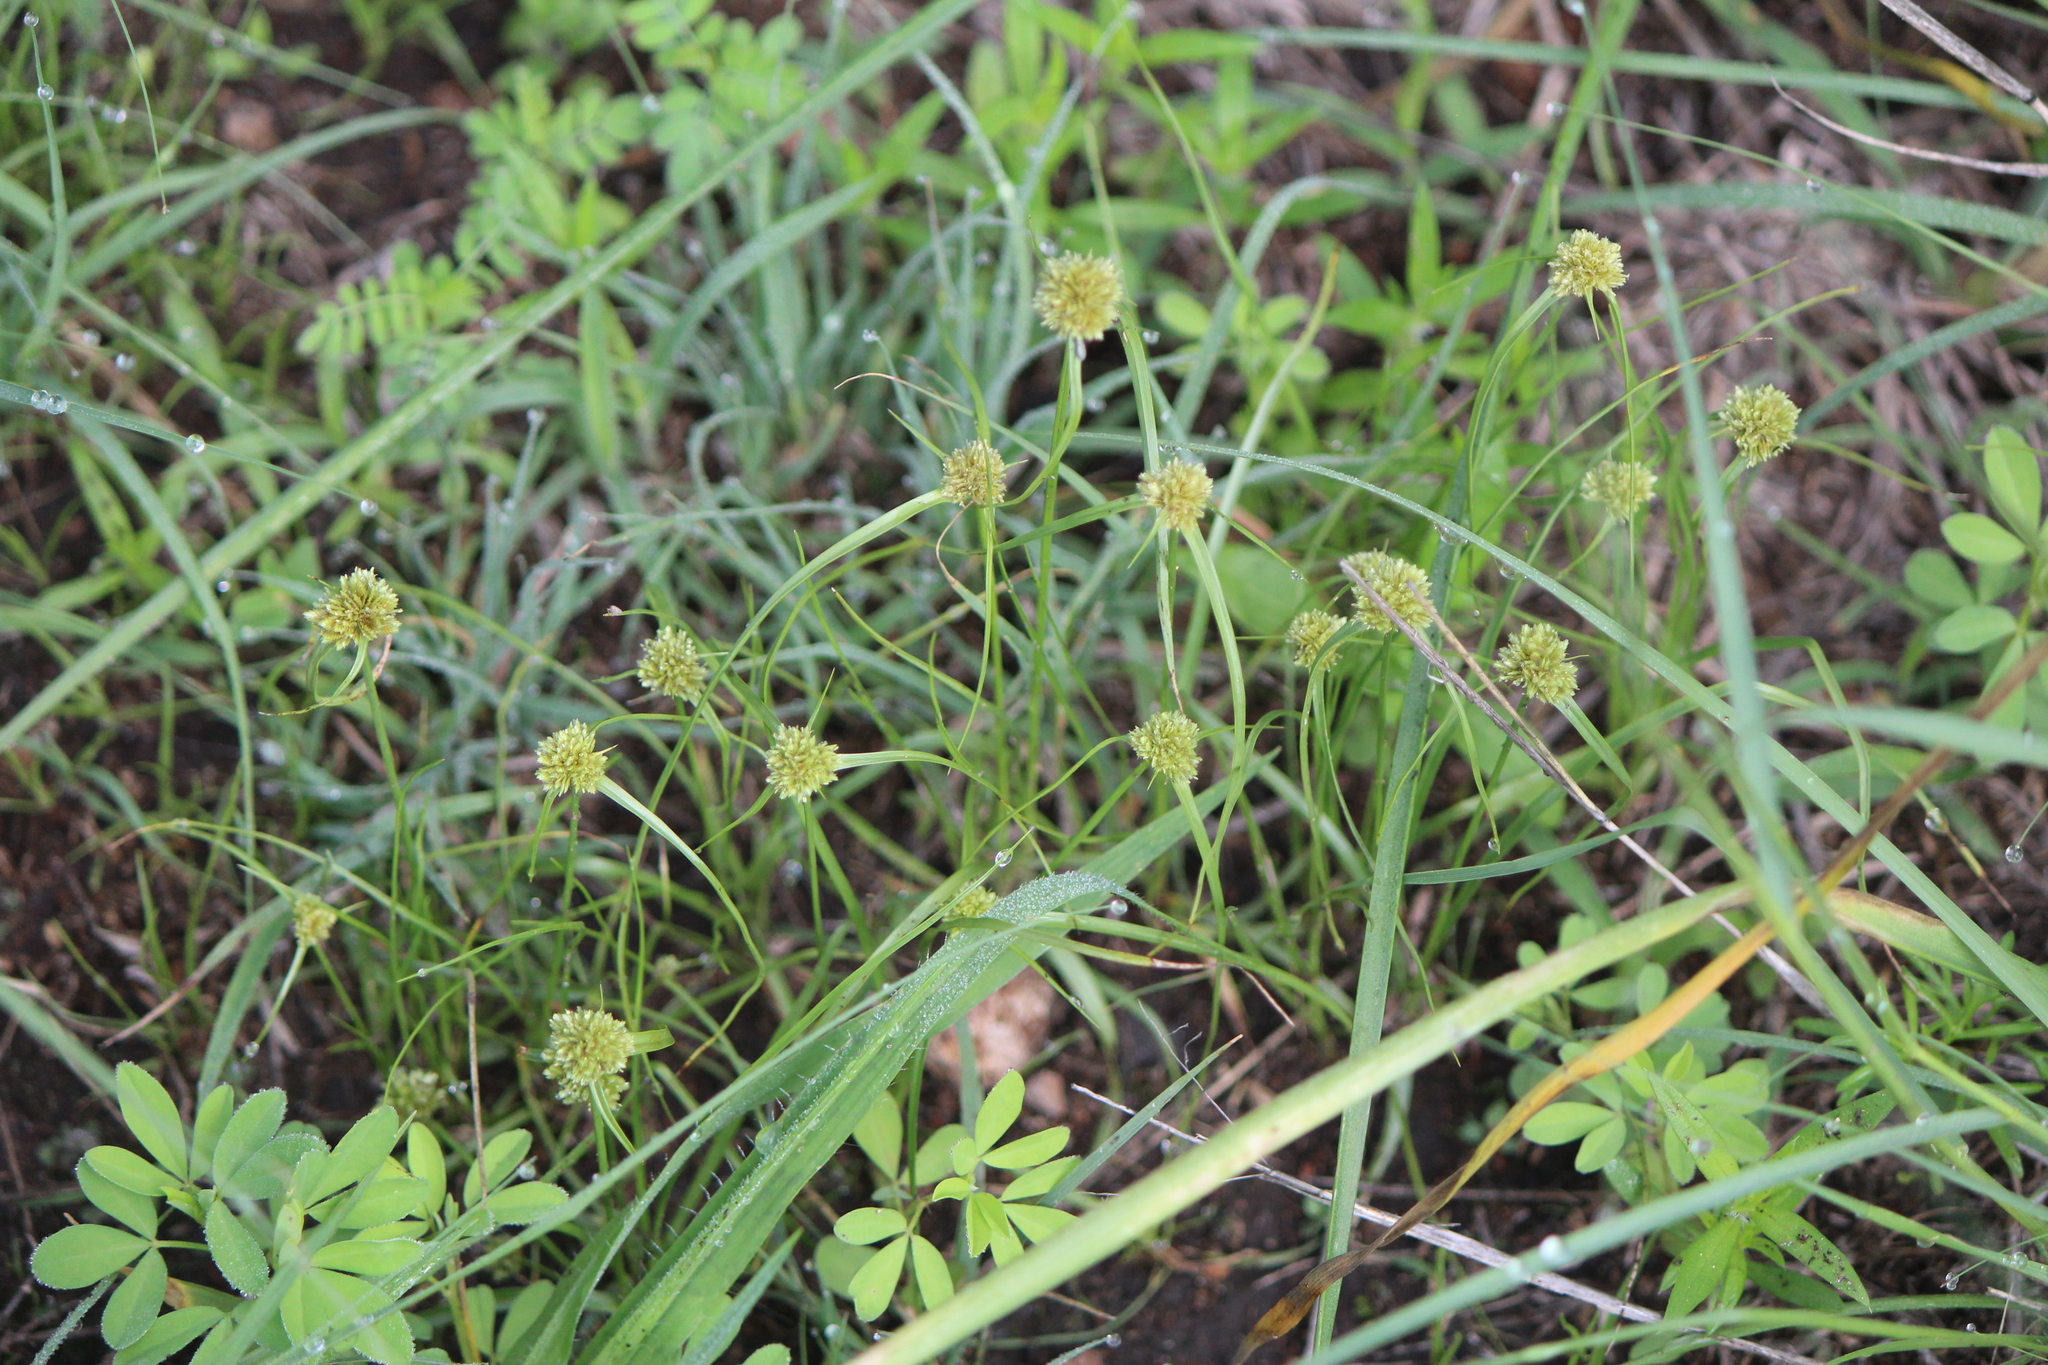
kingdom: Plantae
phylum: Tracheophyta
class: Liliopsida
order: Poales
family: Cyperaceae
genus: Cyperus
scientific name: Cyperus seslerioides
